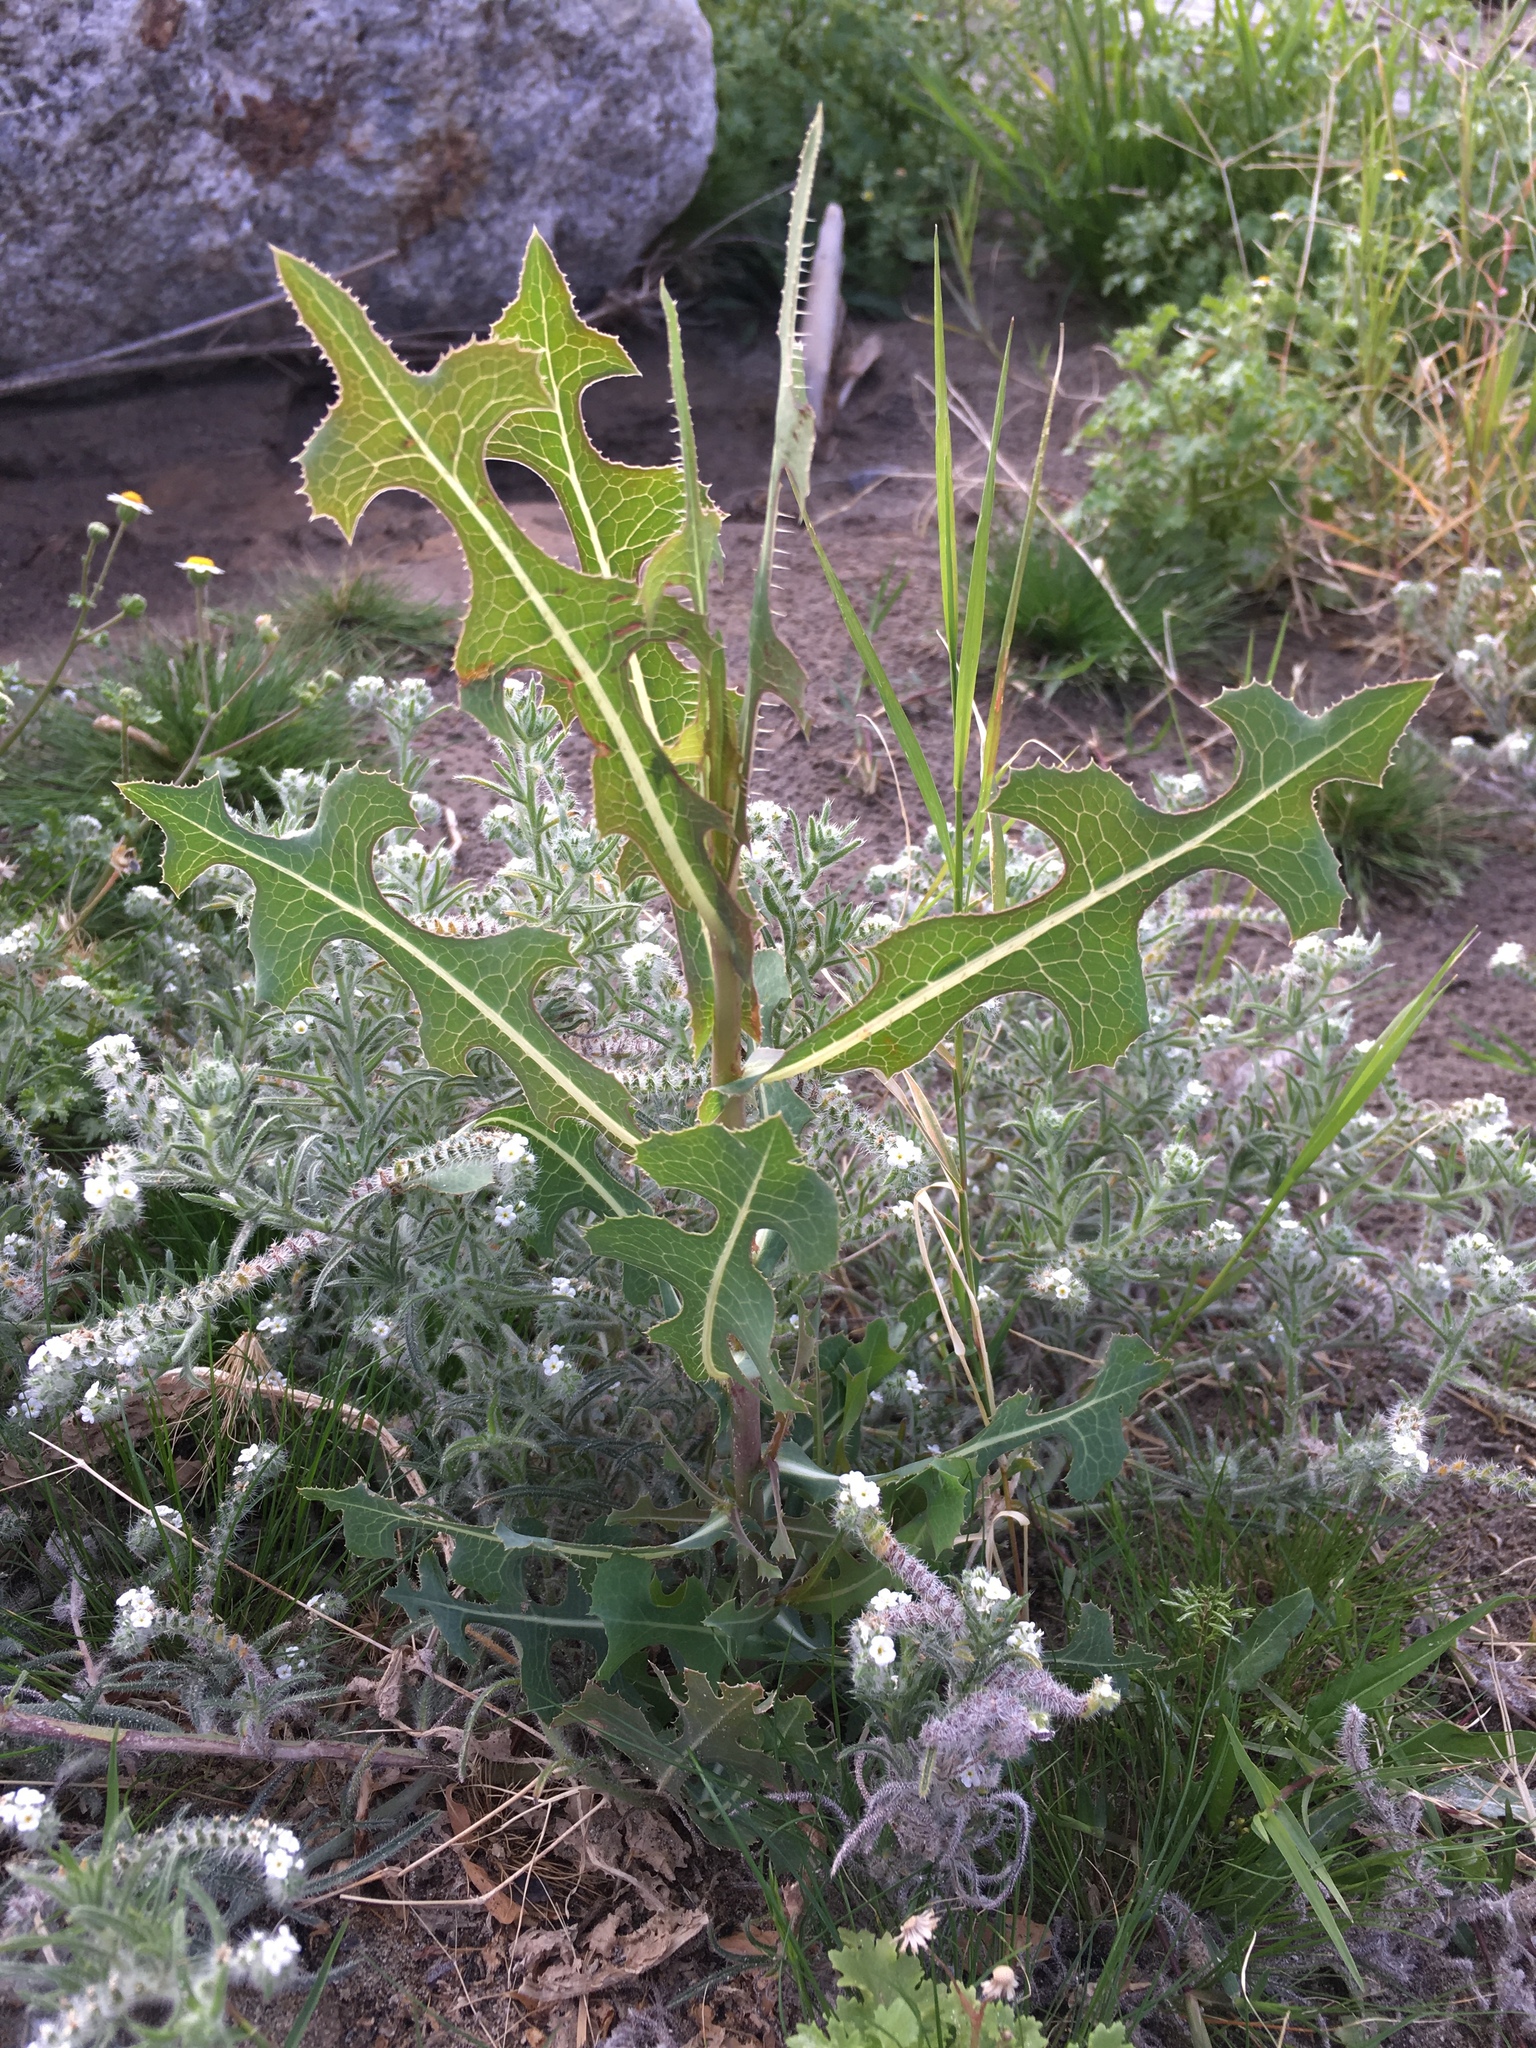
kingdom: Plantae
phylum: Tracheophyta
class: Magnoliopsida
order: Asterales
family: Asteraceae
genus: Lactuca
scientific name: Lactuca serriola
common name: Prickly lettuce
